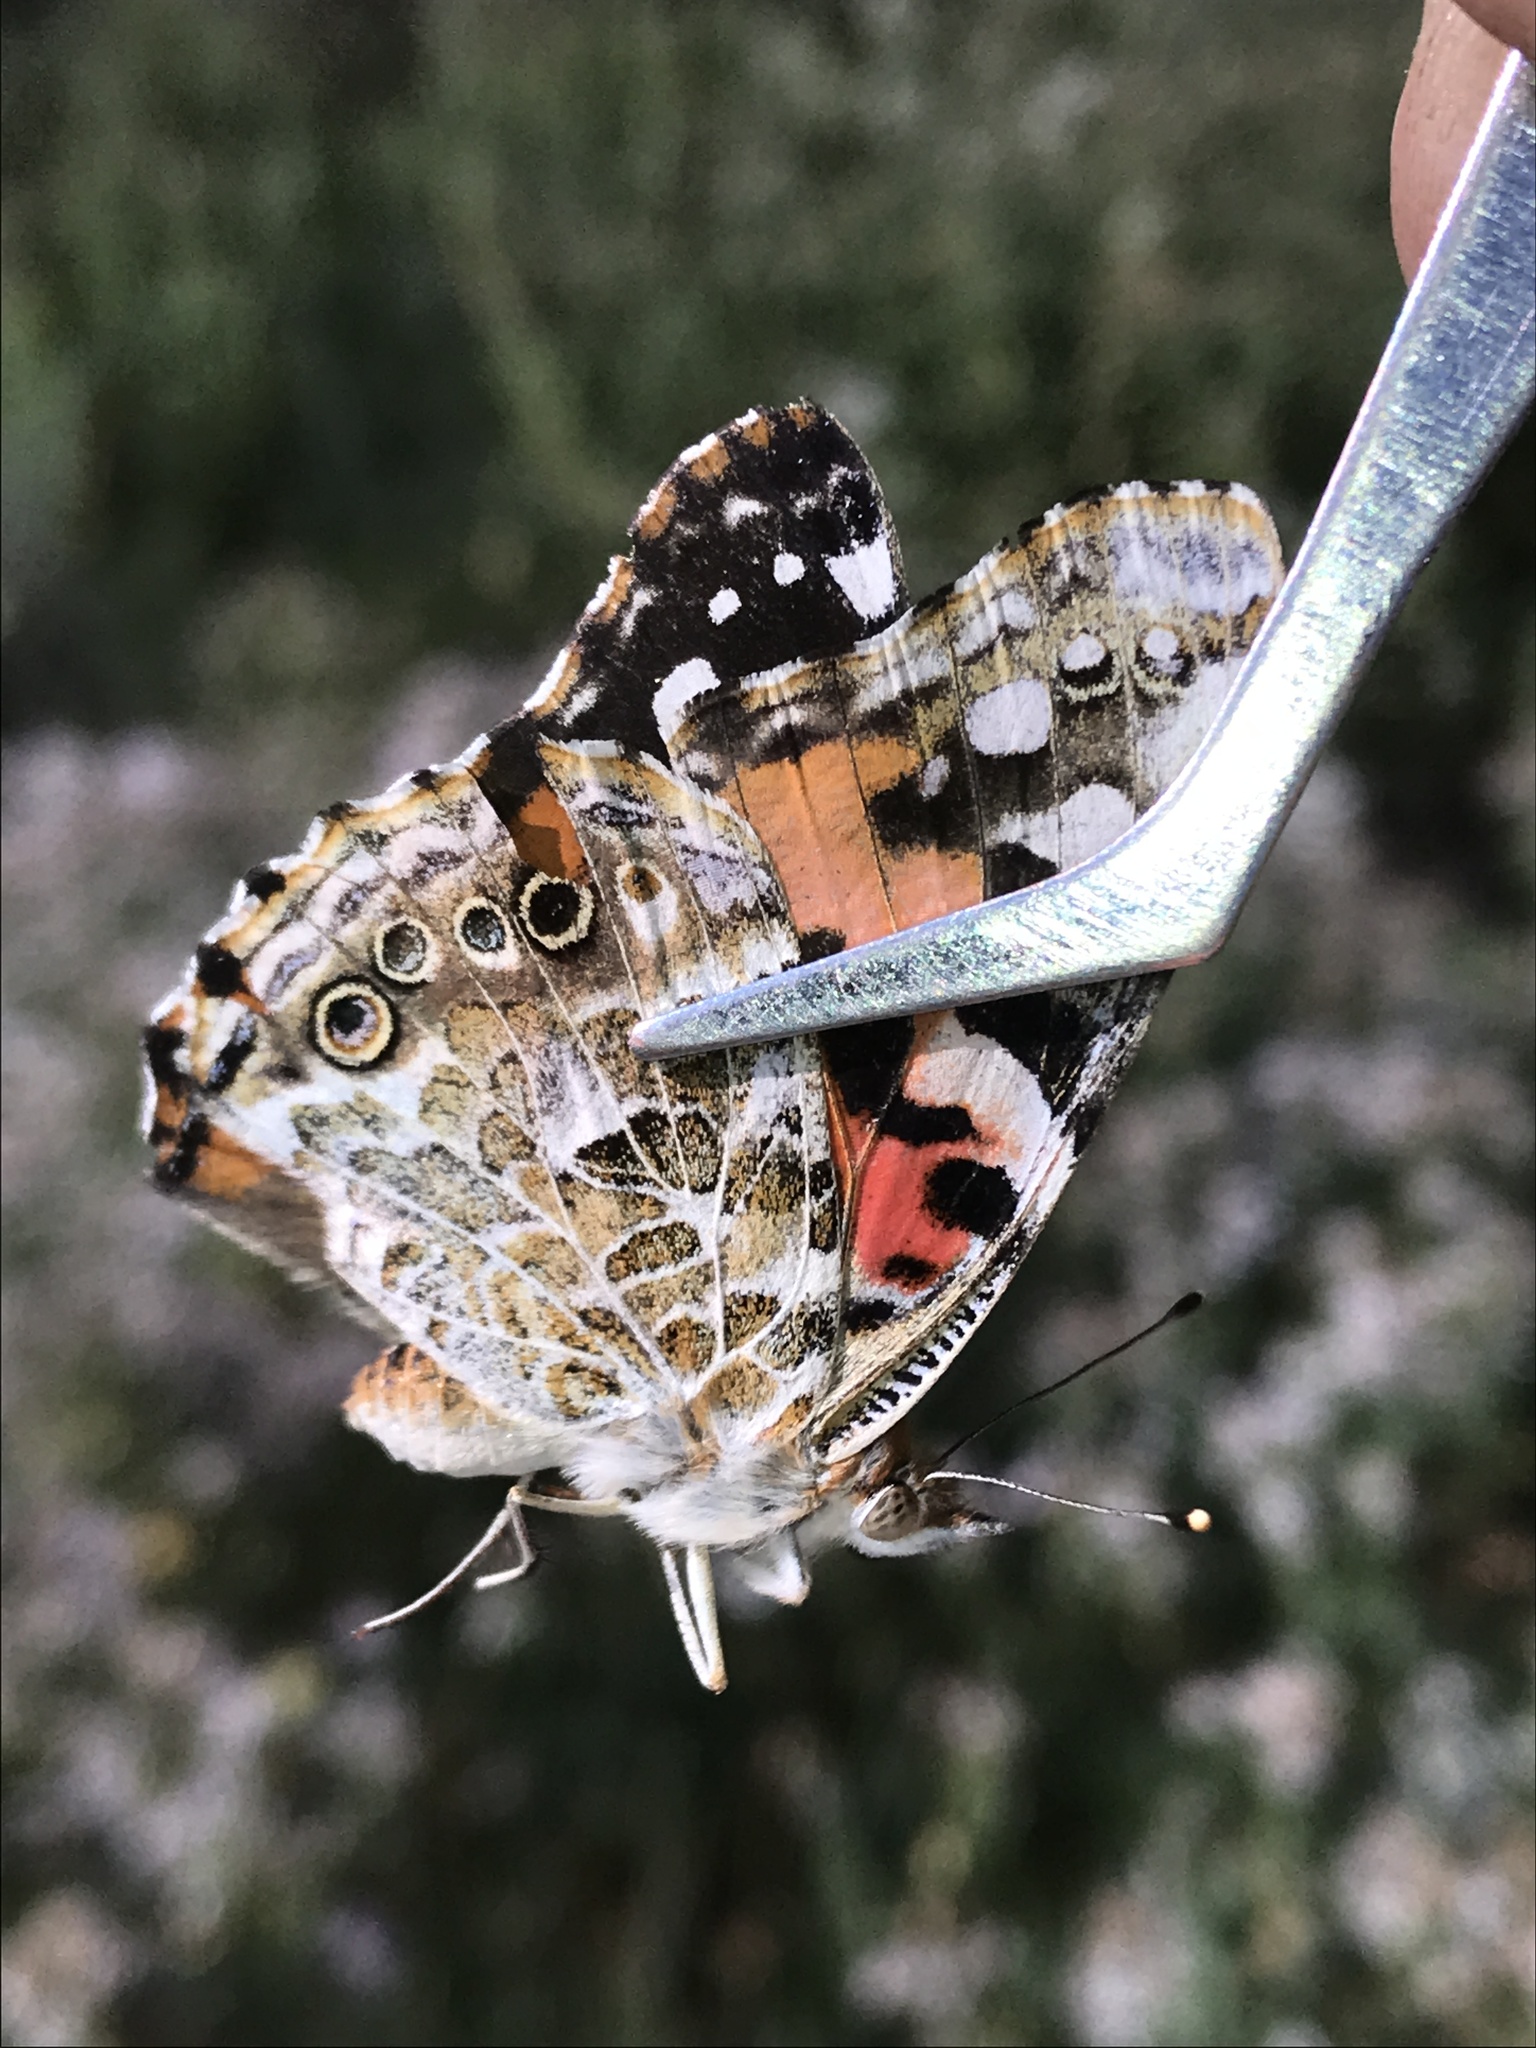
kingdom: Animalia
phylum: Arthropoda
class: Insecta
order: Lepidoptera
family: Nymphalidae
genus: Vanessa
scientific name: Vanessa cardui
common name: Painted lady
